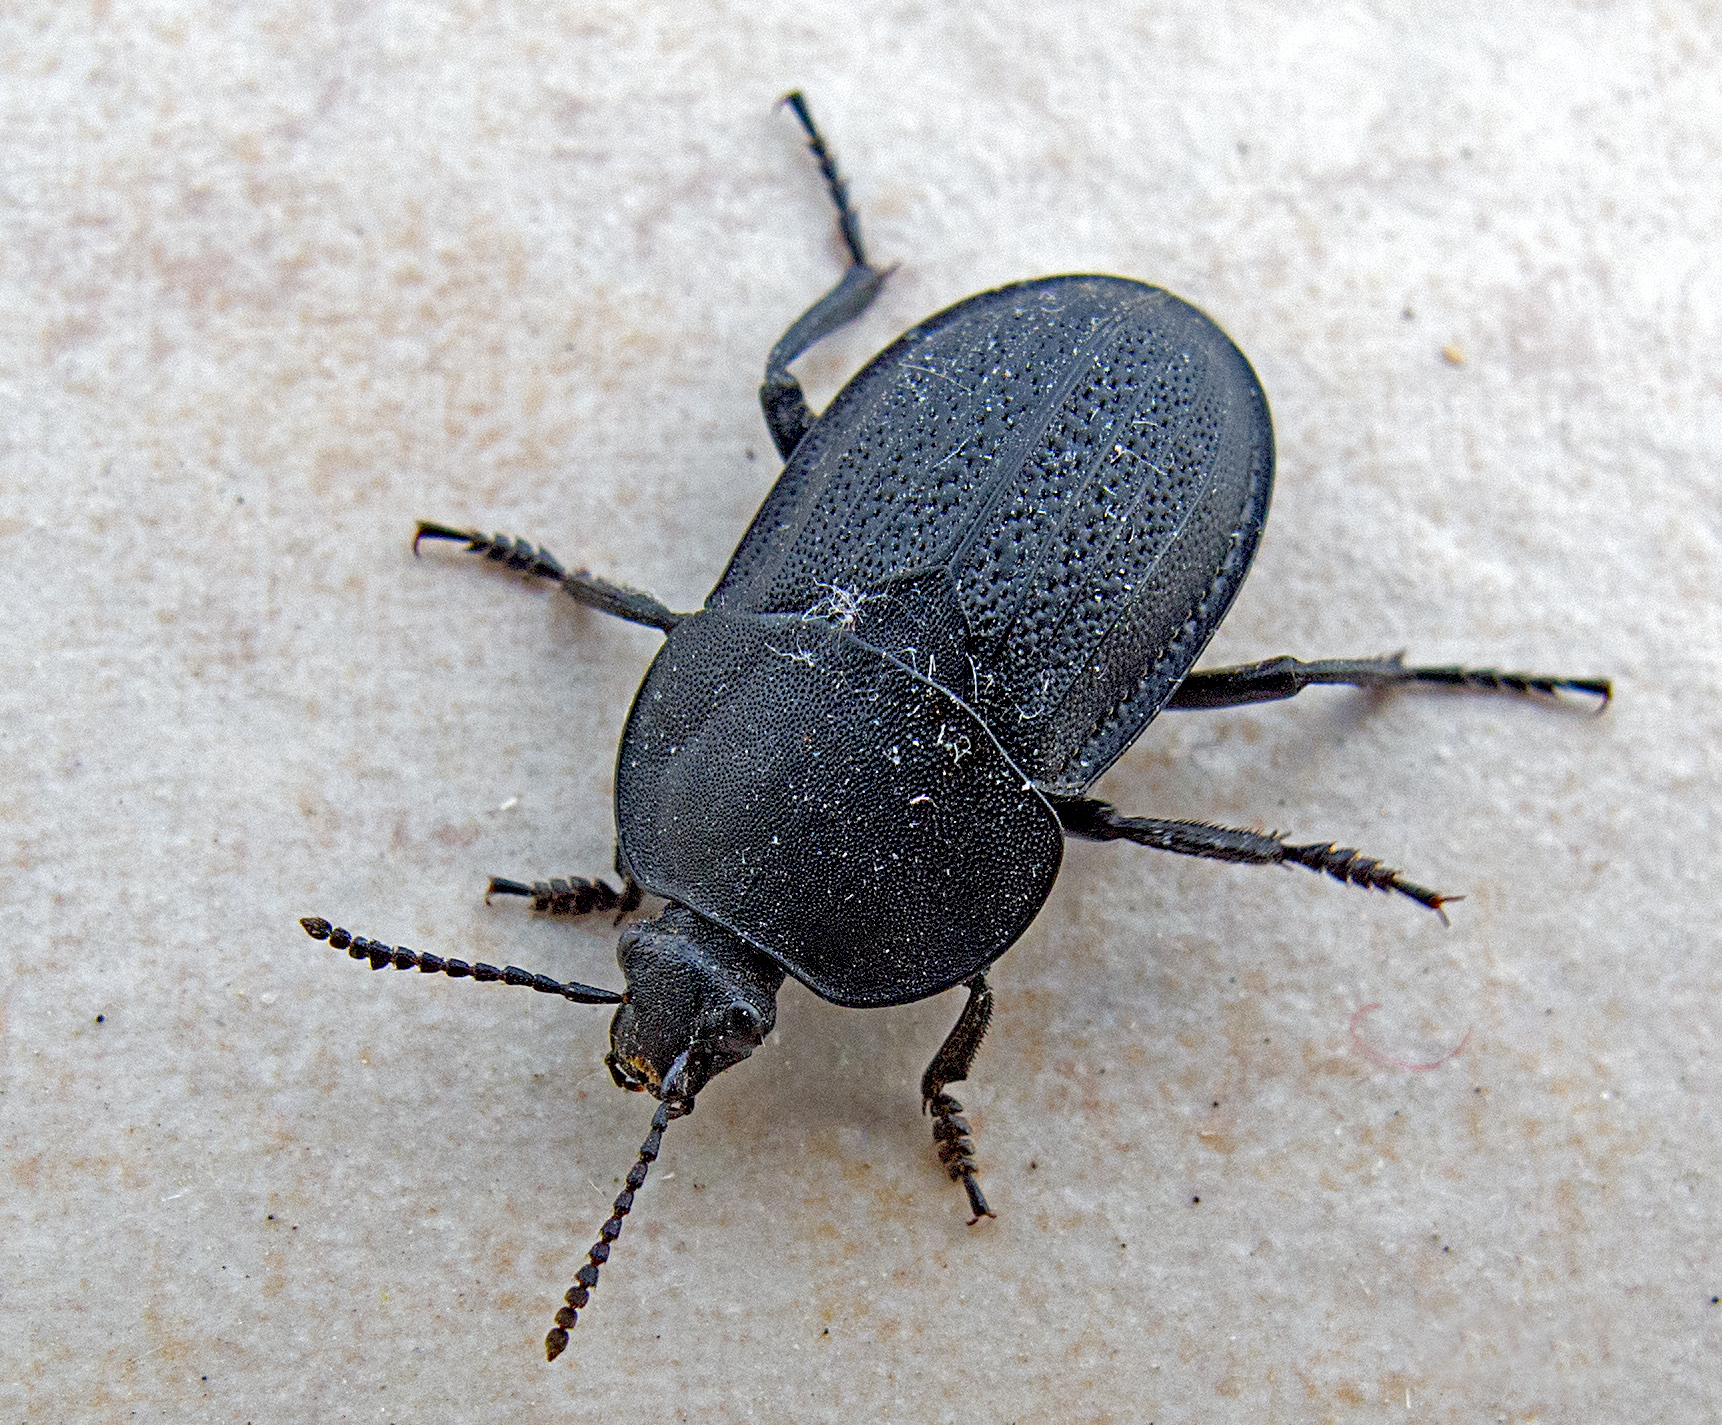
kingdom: Animalia
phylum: Arthropoda
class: Insecta
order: Coleoptera
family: Staphylinidae
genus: Silpha
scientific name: Silpha obscura
